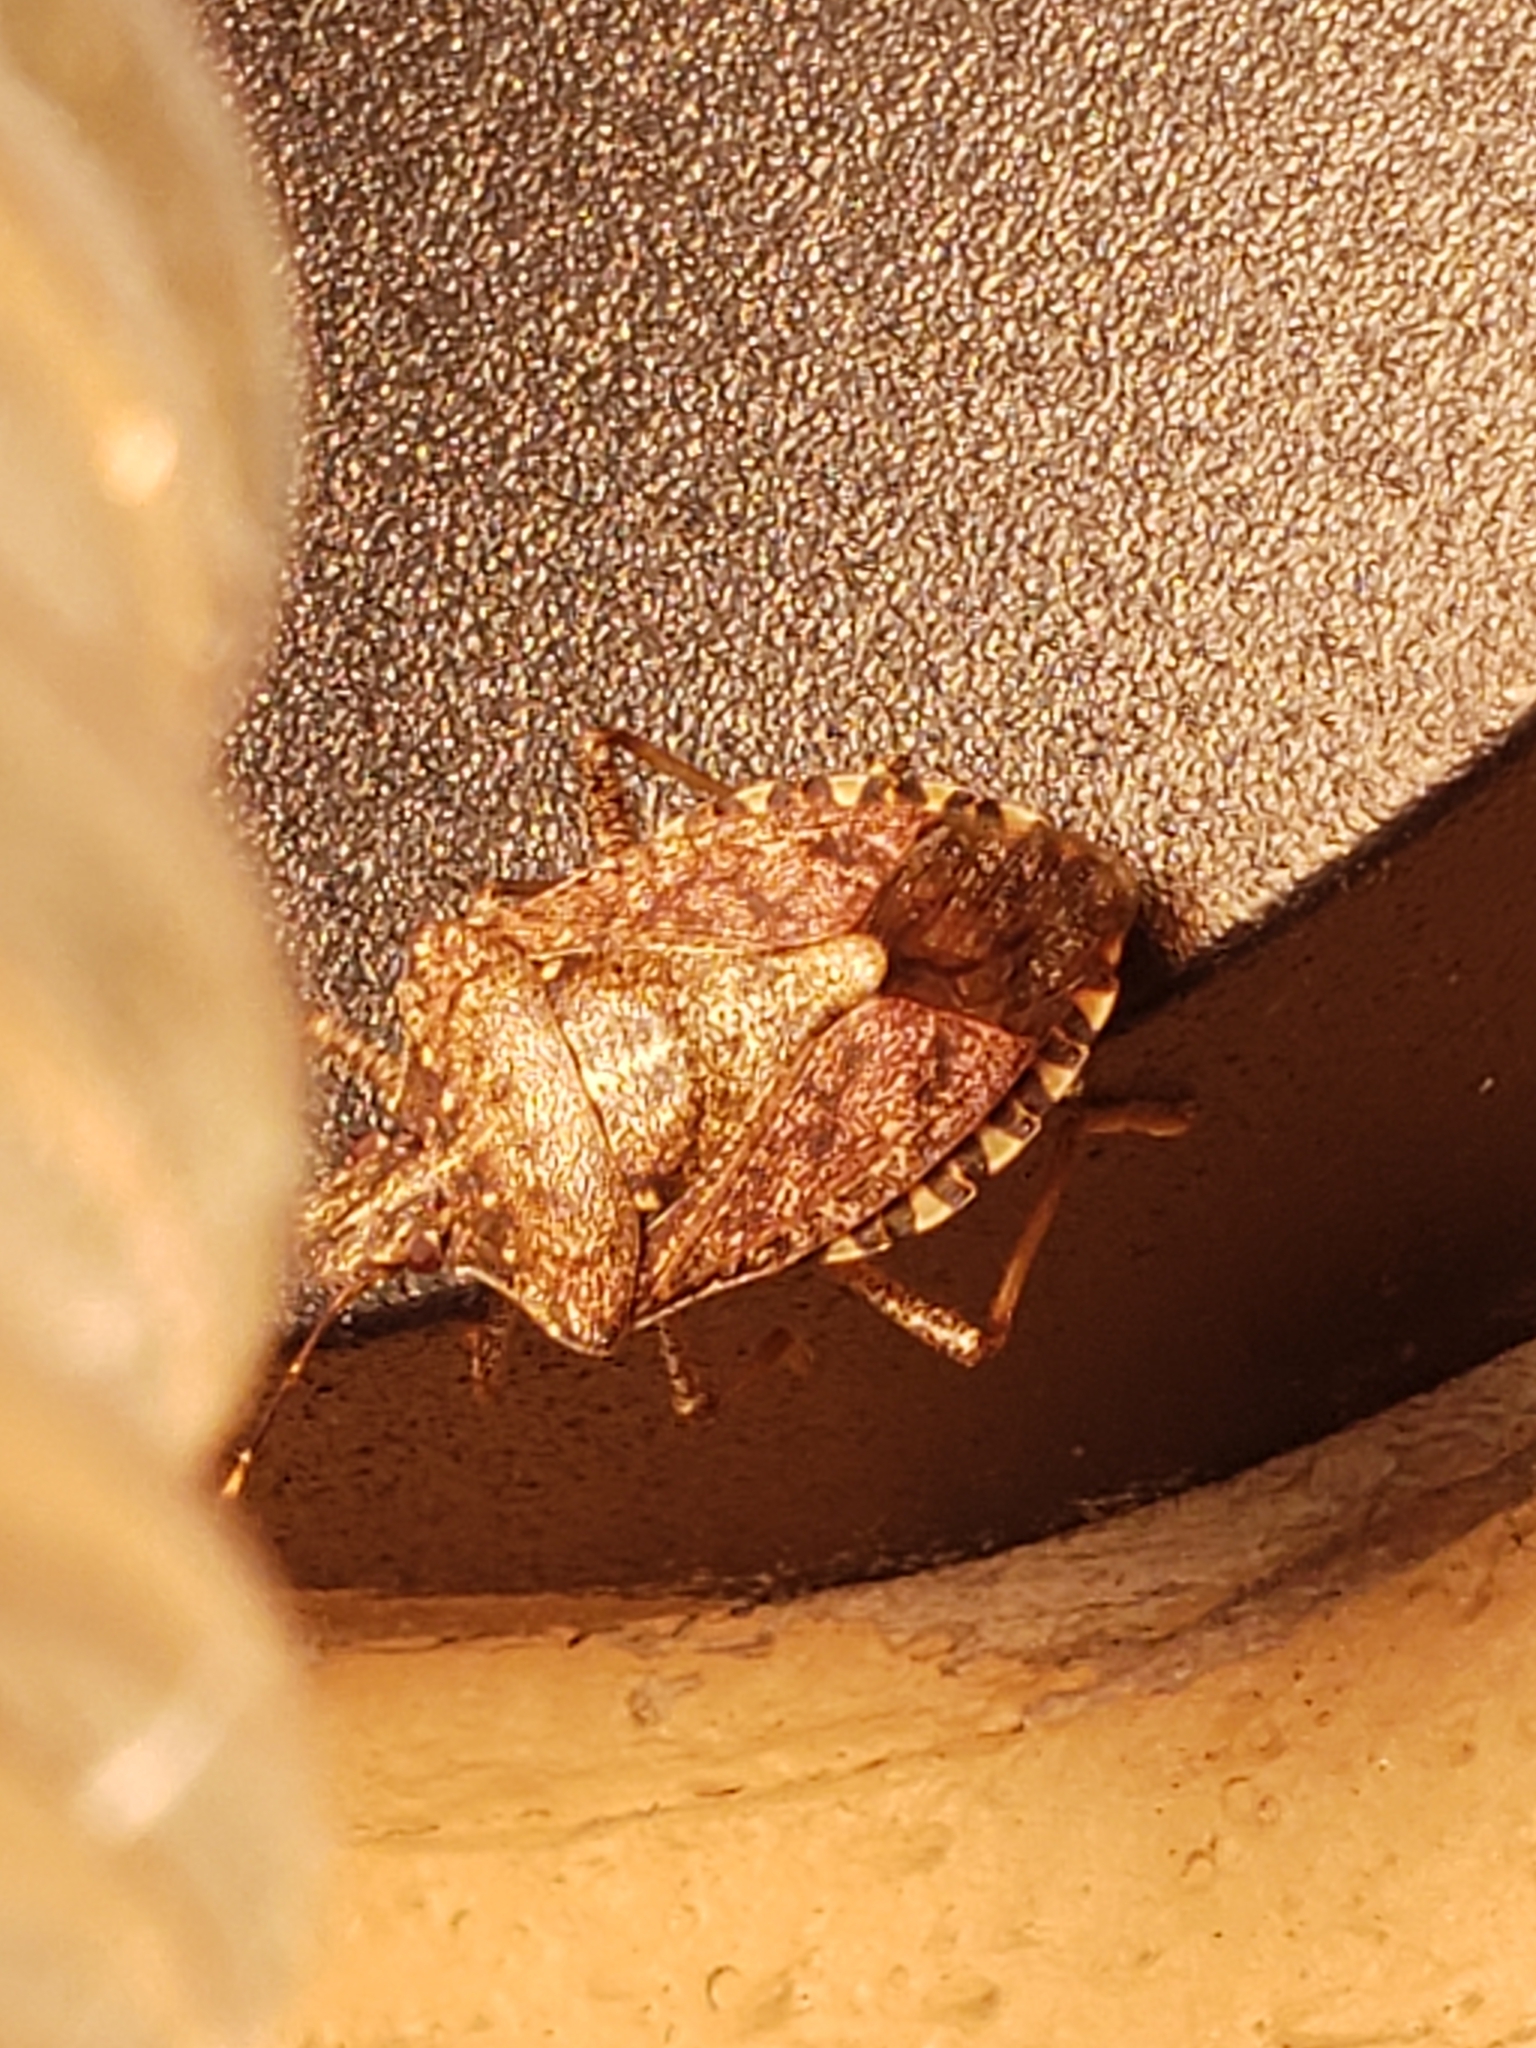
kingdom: Animalia
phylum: Arthropoda
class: Insecta
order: Hemiptera
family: Pentatomidae
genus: Halyomorpha
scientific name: Halyomorpha halys
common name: Brown marmorated stink bug
